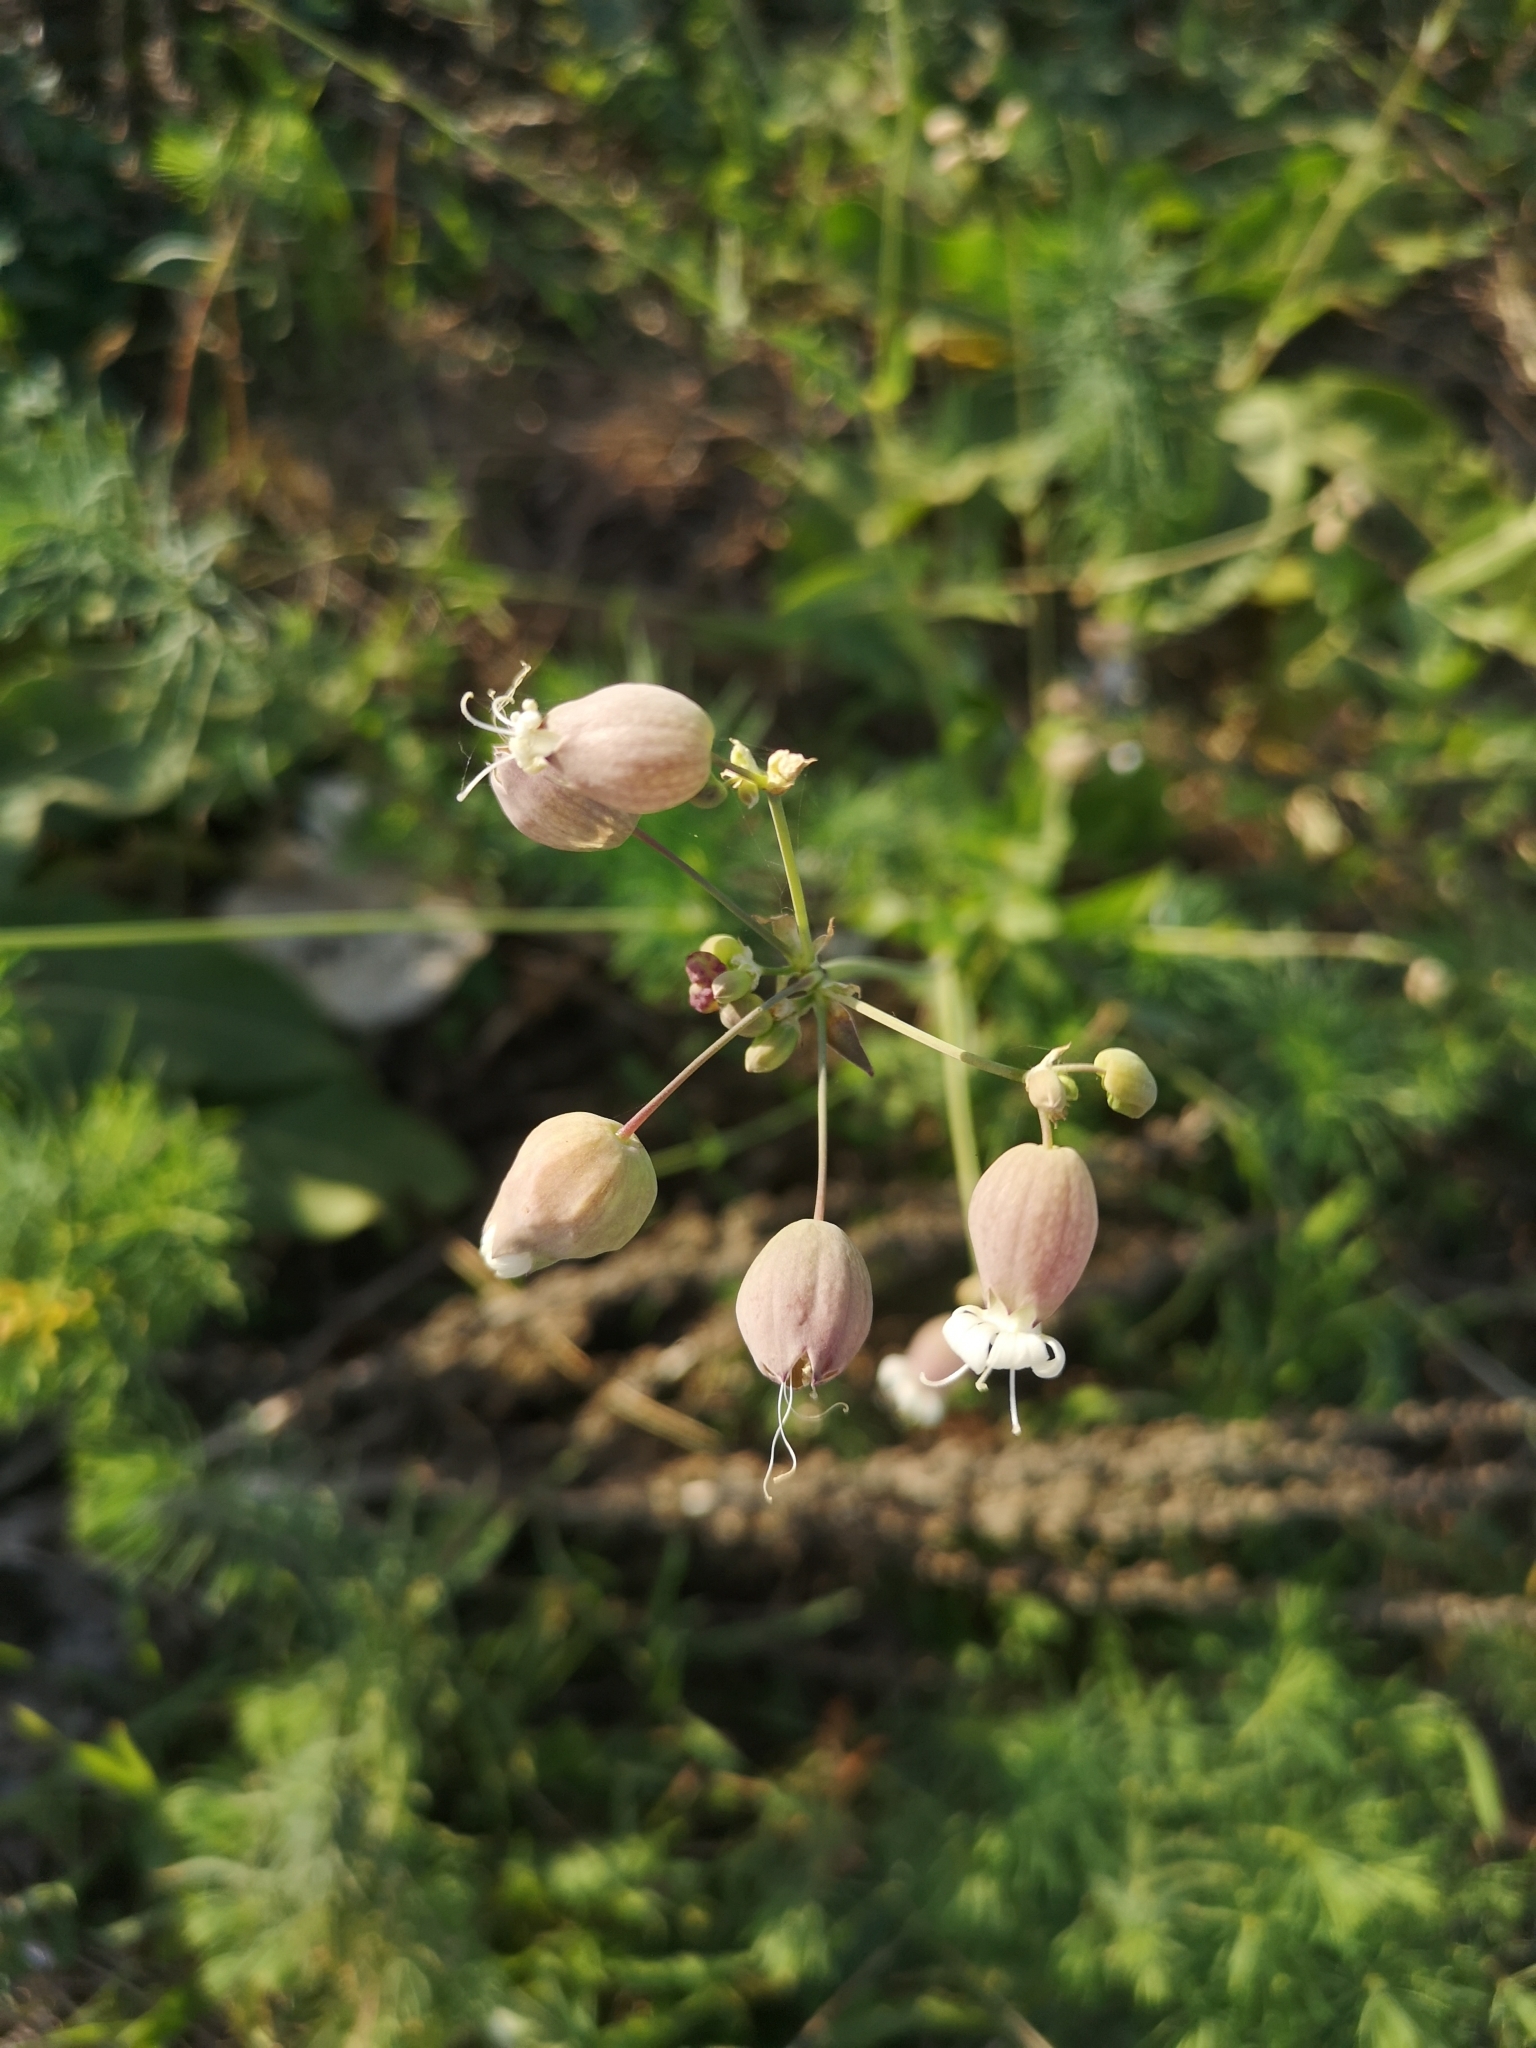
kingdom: Plantae
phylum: Tracheophyta
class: Magnoliopsida
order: Caryophyllales
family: Caryophyllaceae
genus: Silene
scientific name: Silene vulgaris
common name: Bladder campion
